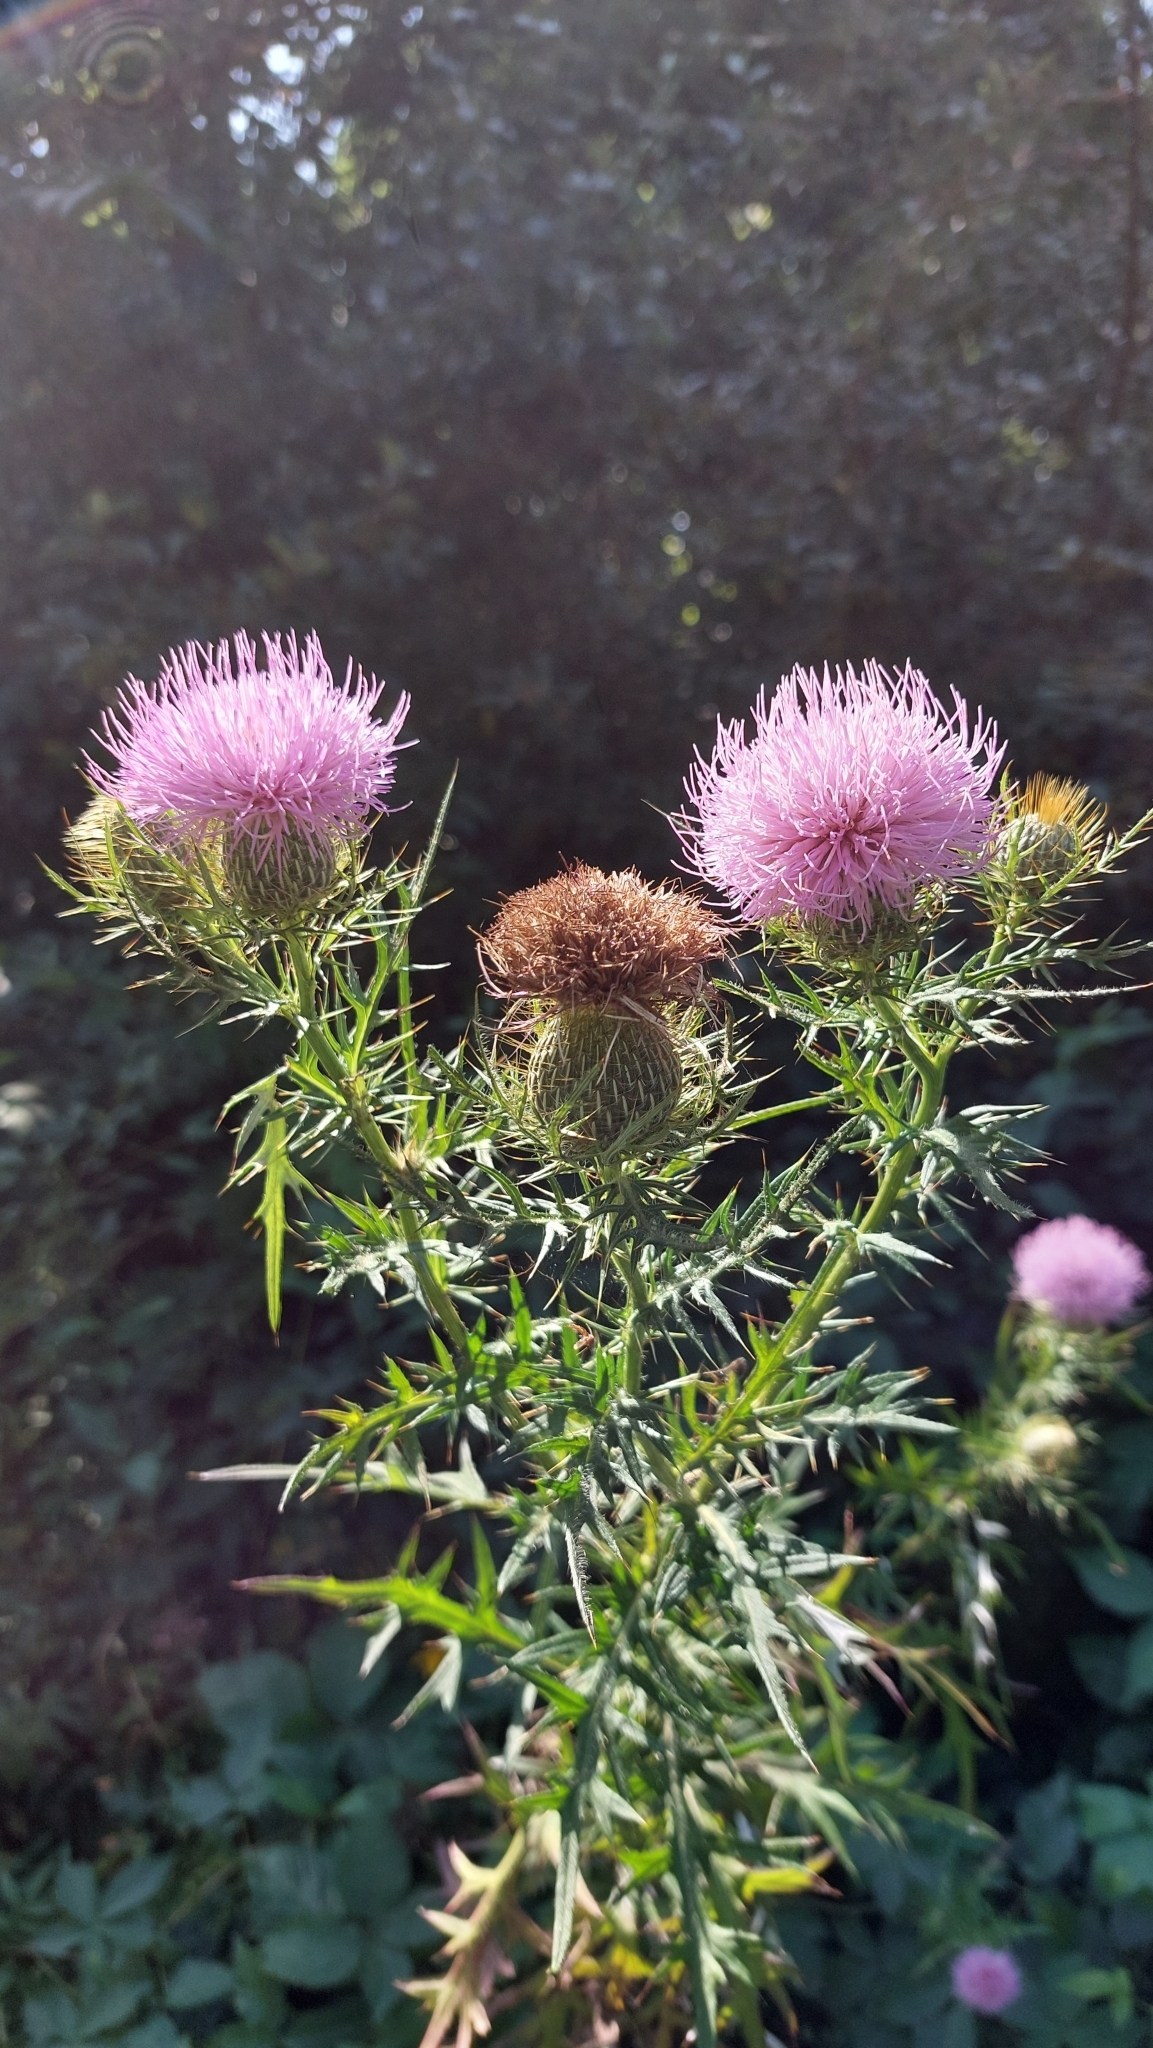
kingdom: Plantae
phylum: Tracheophyta
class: Magnoliopsida
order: Asterales
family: Asteraceae
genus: Cirsium
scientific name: Cirsium discolor
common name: Field thistle
